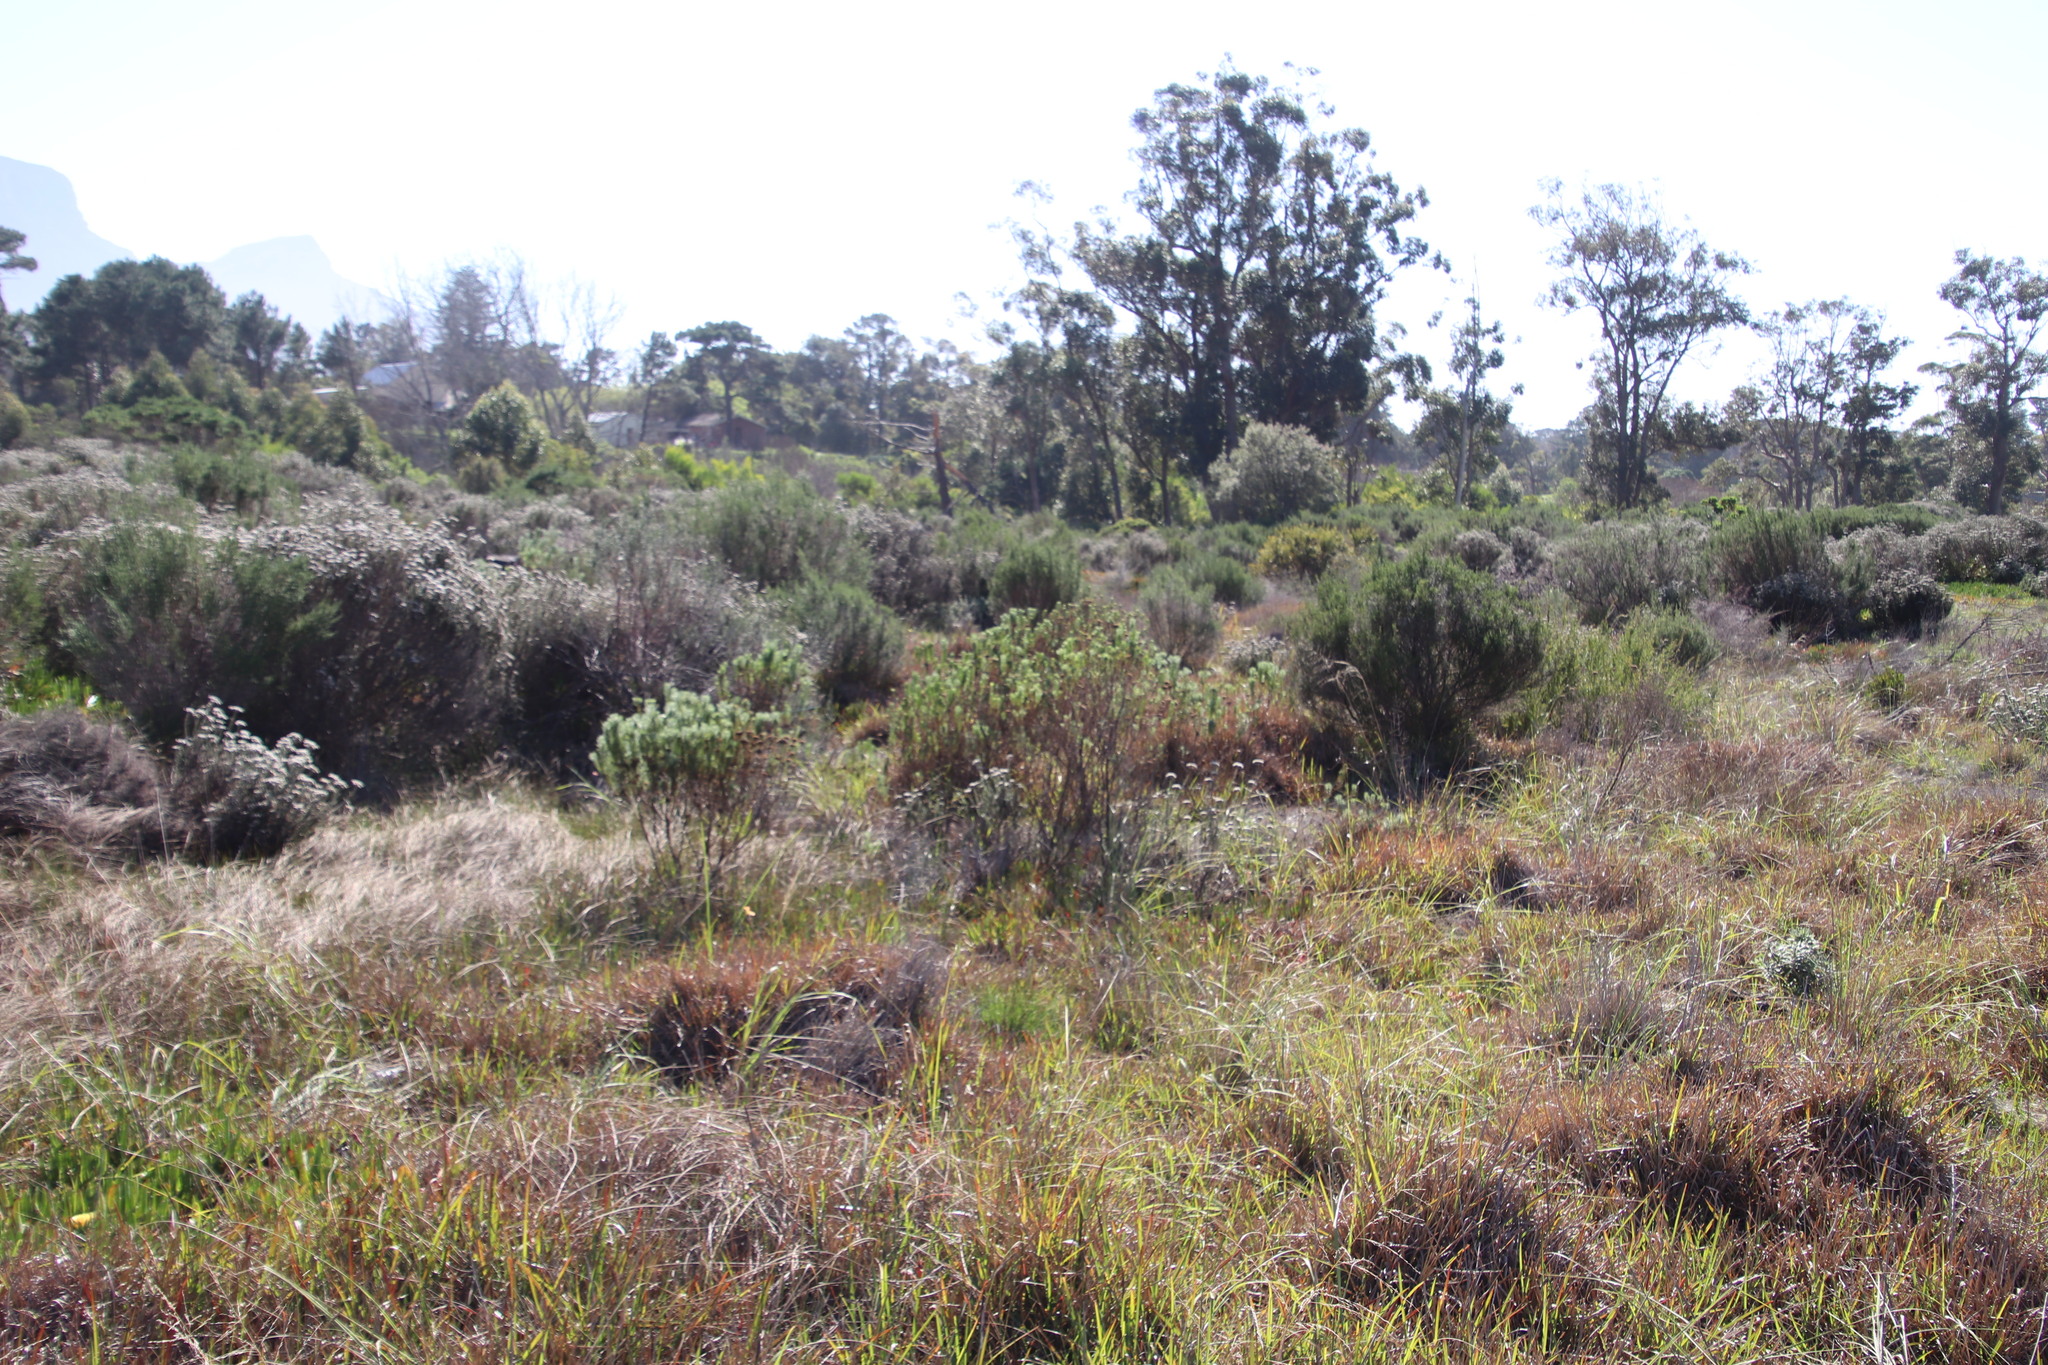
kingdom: Plantae
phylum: Tracheophyta
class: Magnoliopsida
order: Asterales
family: Asteraceae
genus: Athanasia
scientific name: Athanasia crithmifolia
